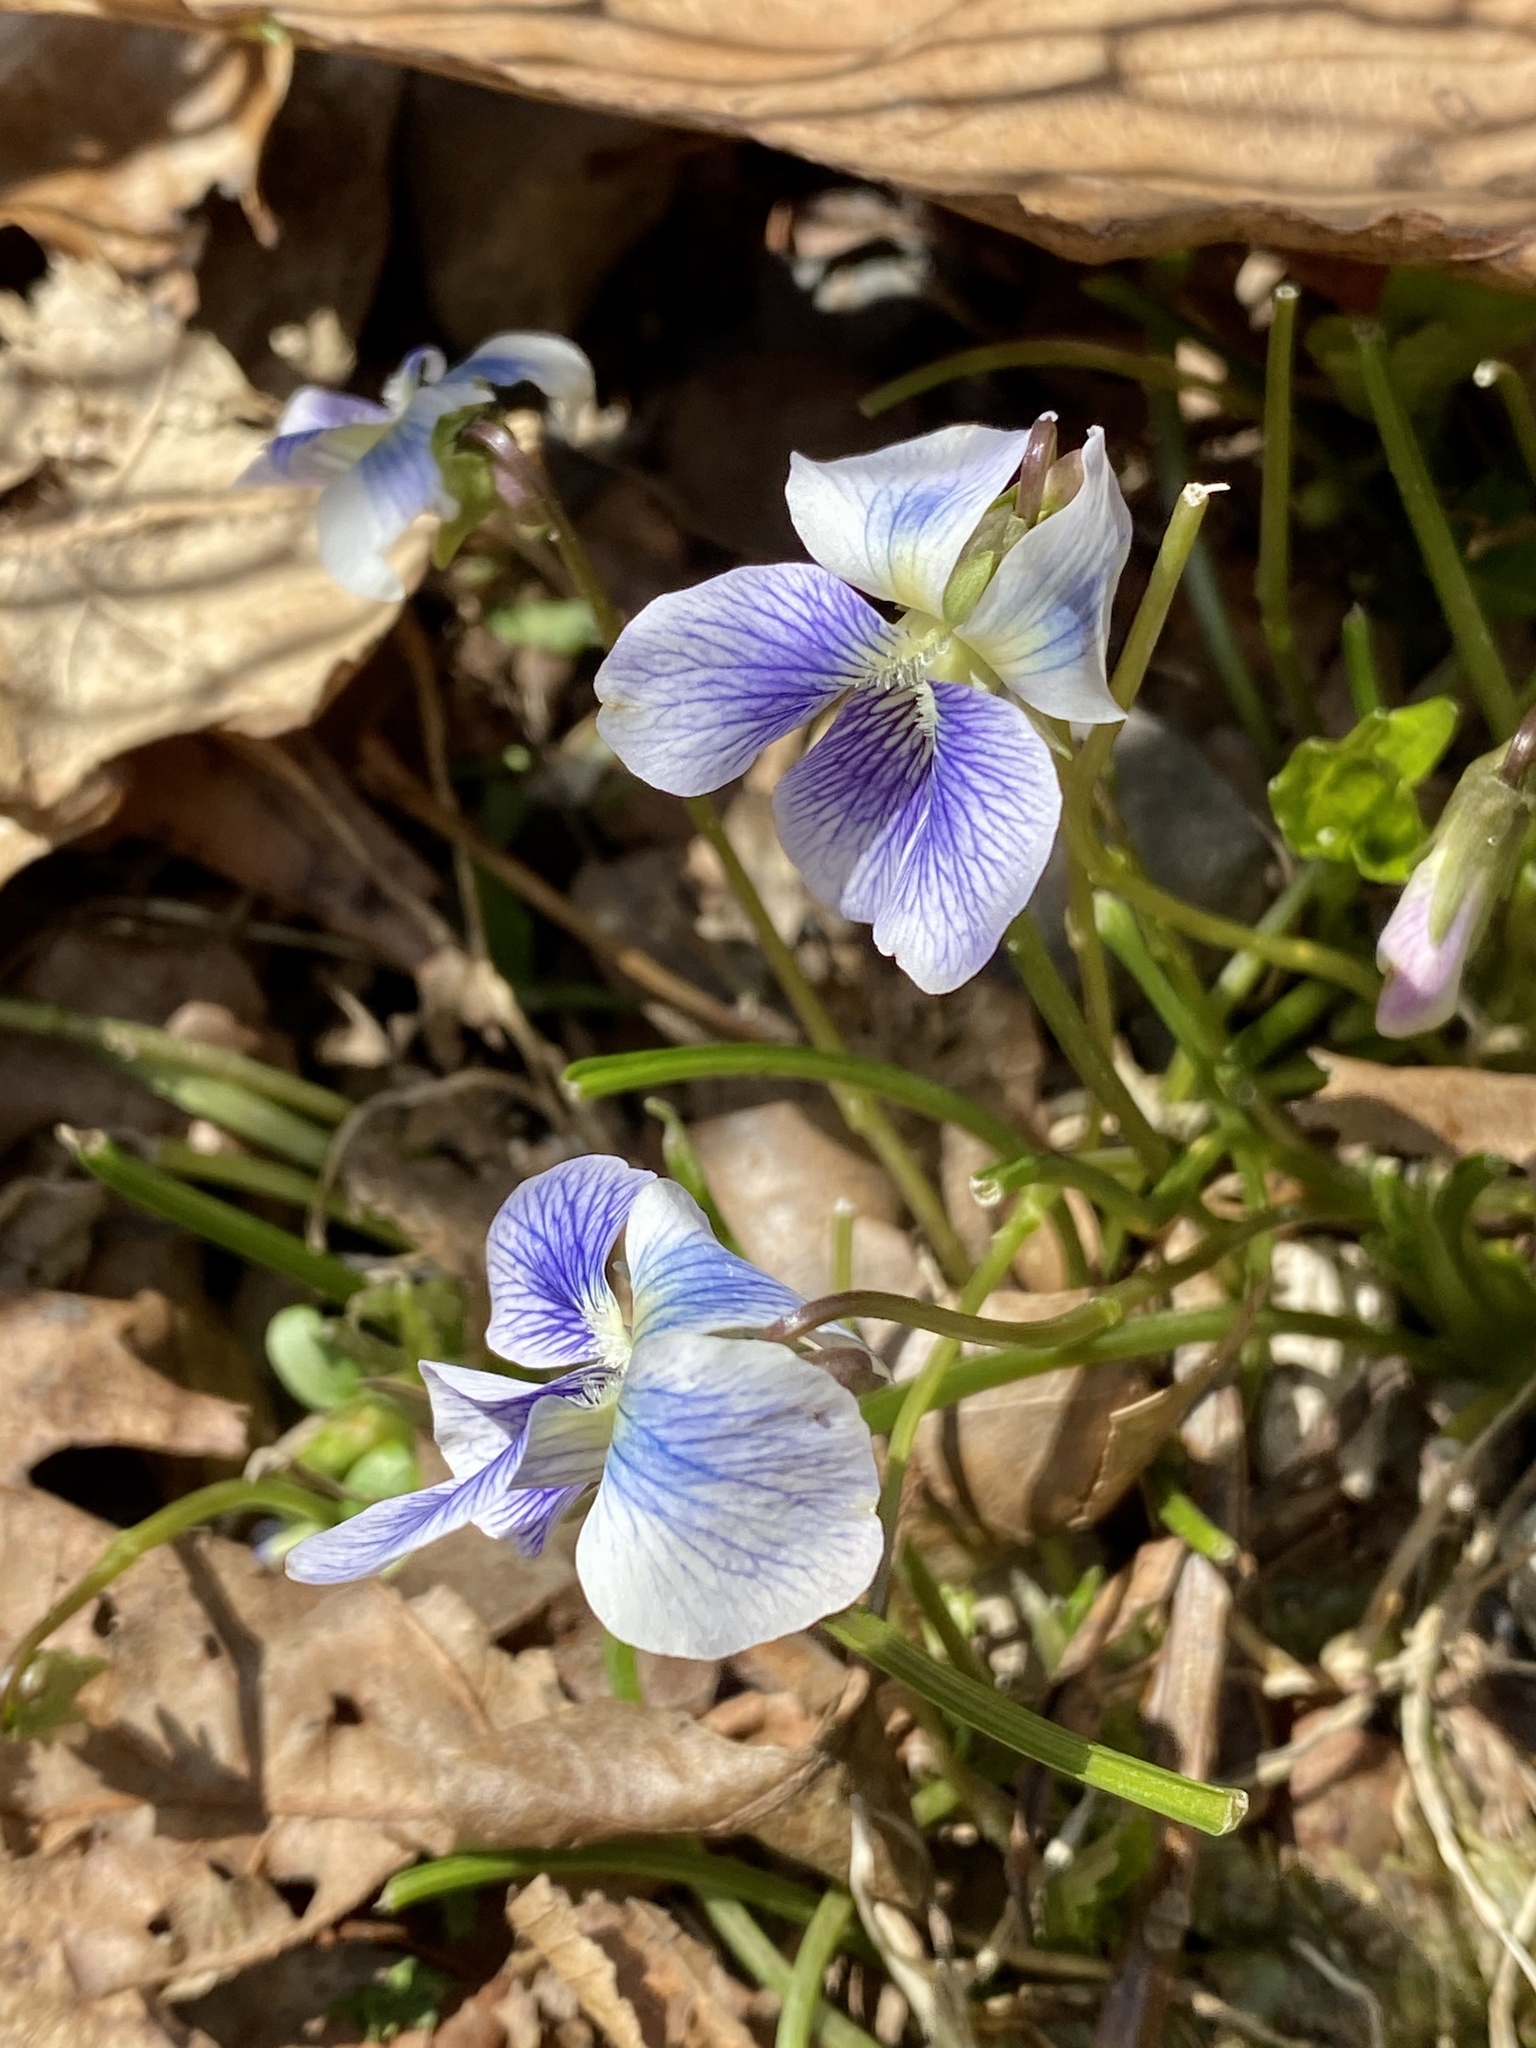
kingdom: Plantae
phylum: Tracheophyta
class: Magnoliopsida
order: Malpighiales
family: Violaceae
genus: Viola
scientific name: Viola sororia
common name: Dooryard violet
